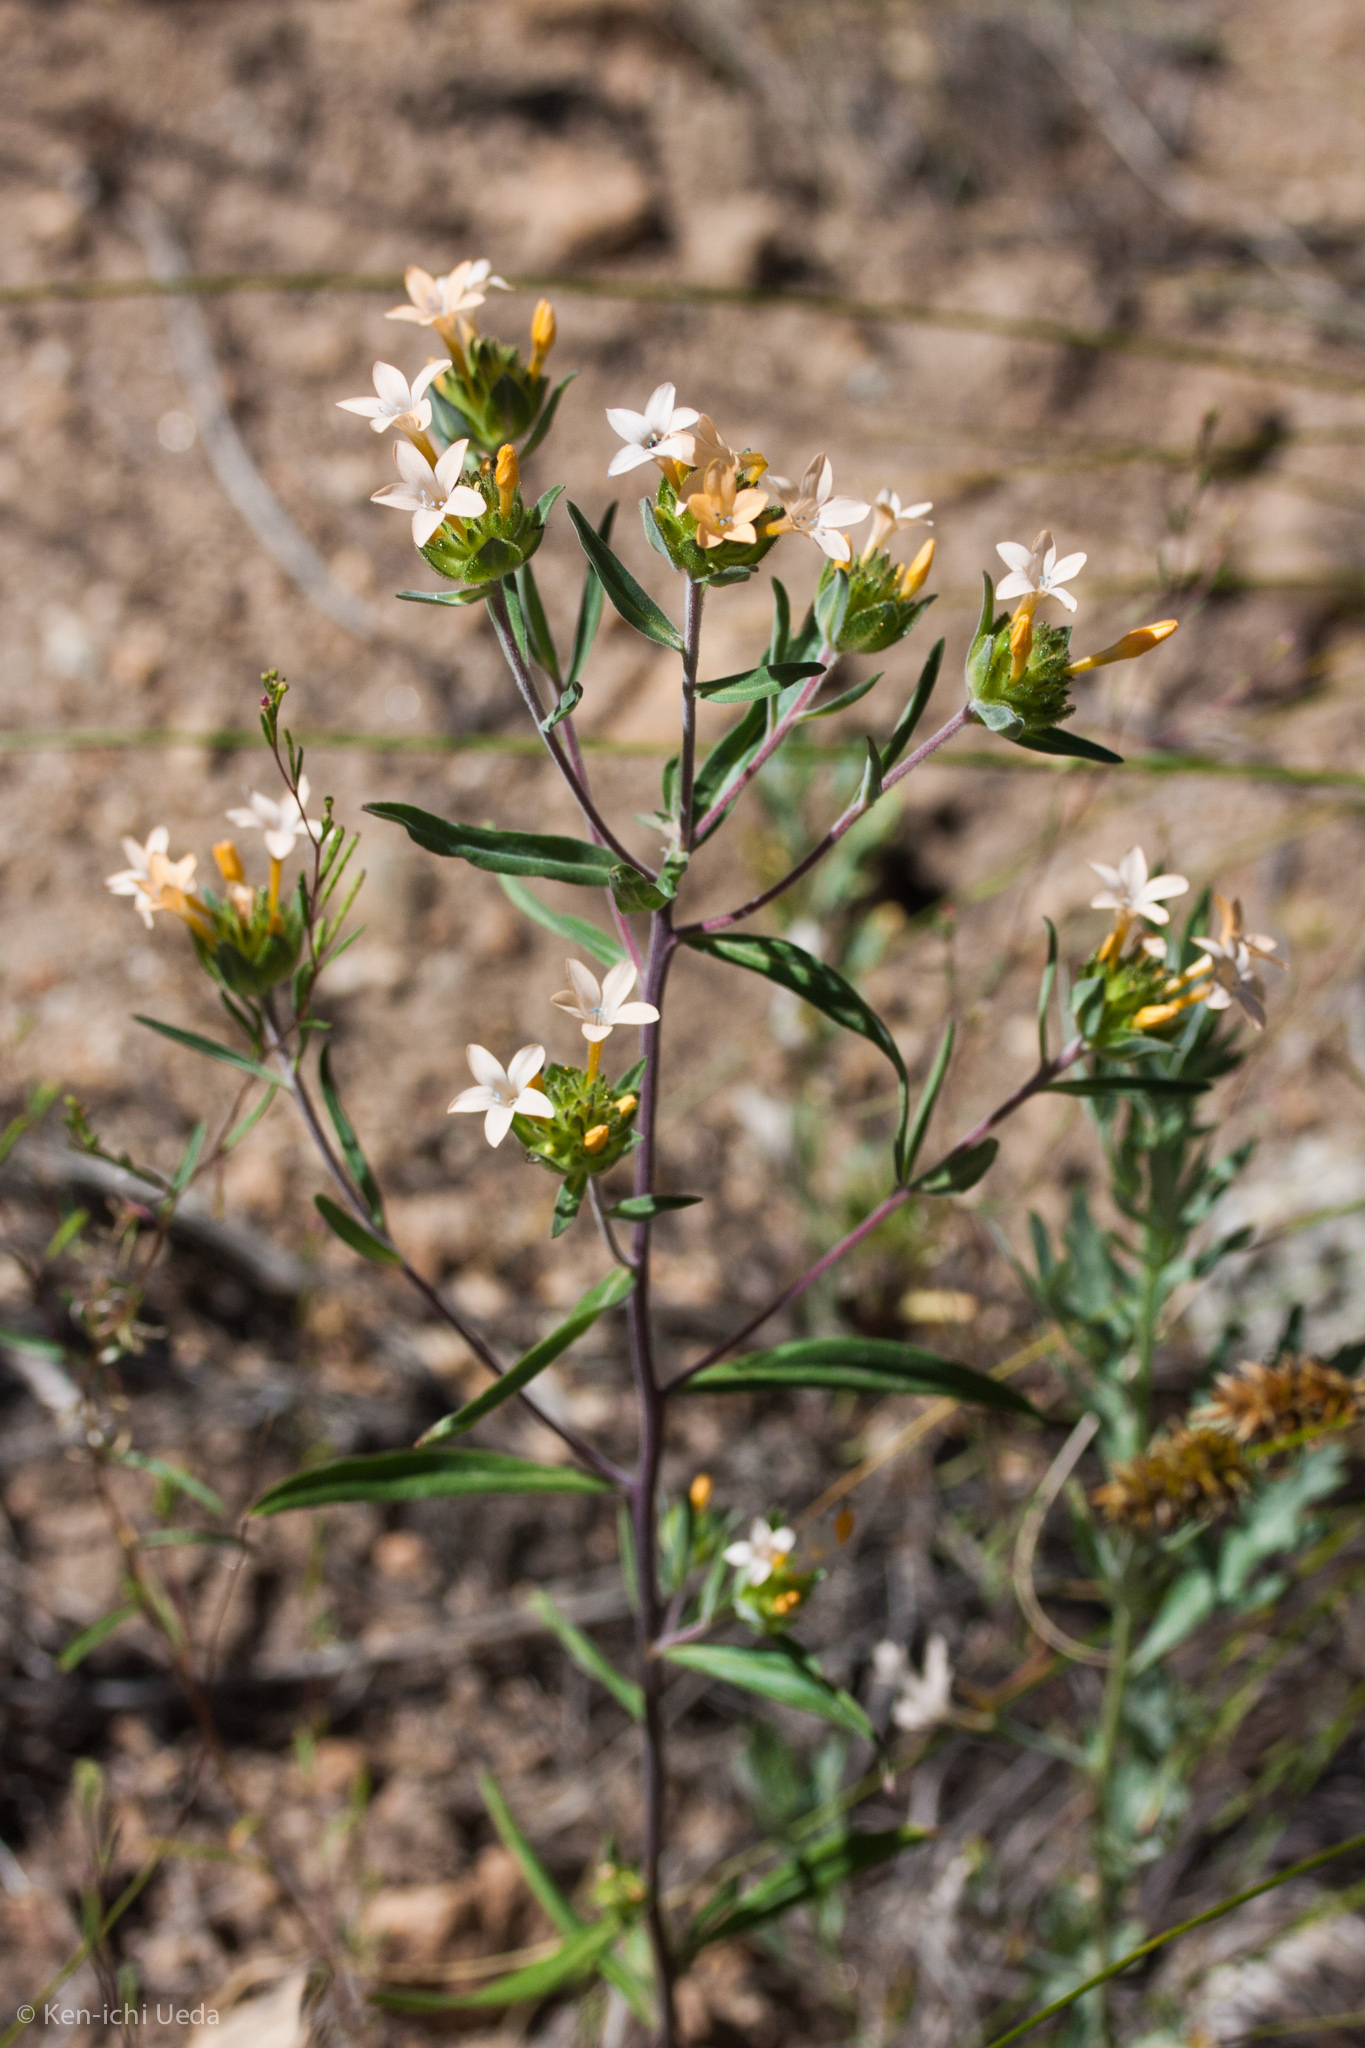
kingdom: Plantae
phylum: Tracheophyta
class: Magnoliopsida
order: Ericales
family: Polemoniaceae
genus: Collomia
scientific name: Collomia grandiflora
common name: California strawflower
